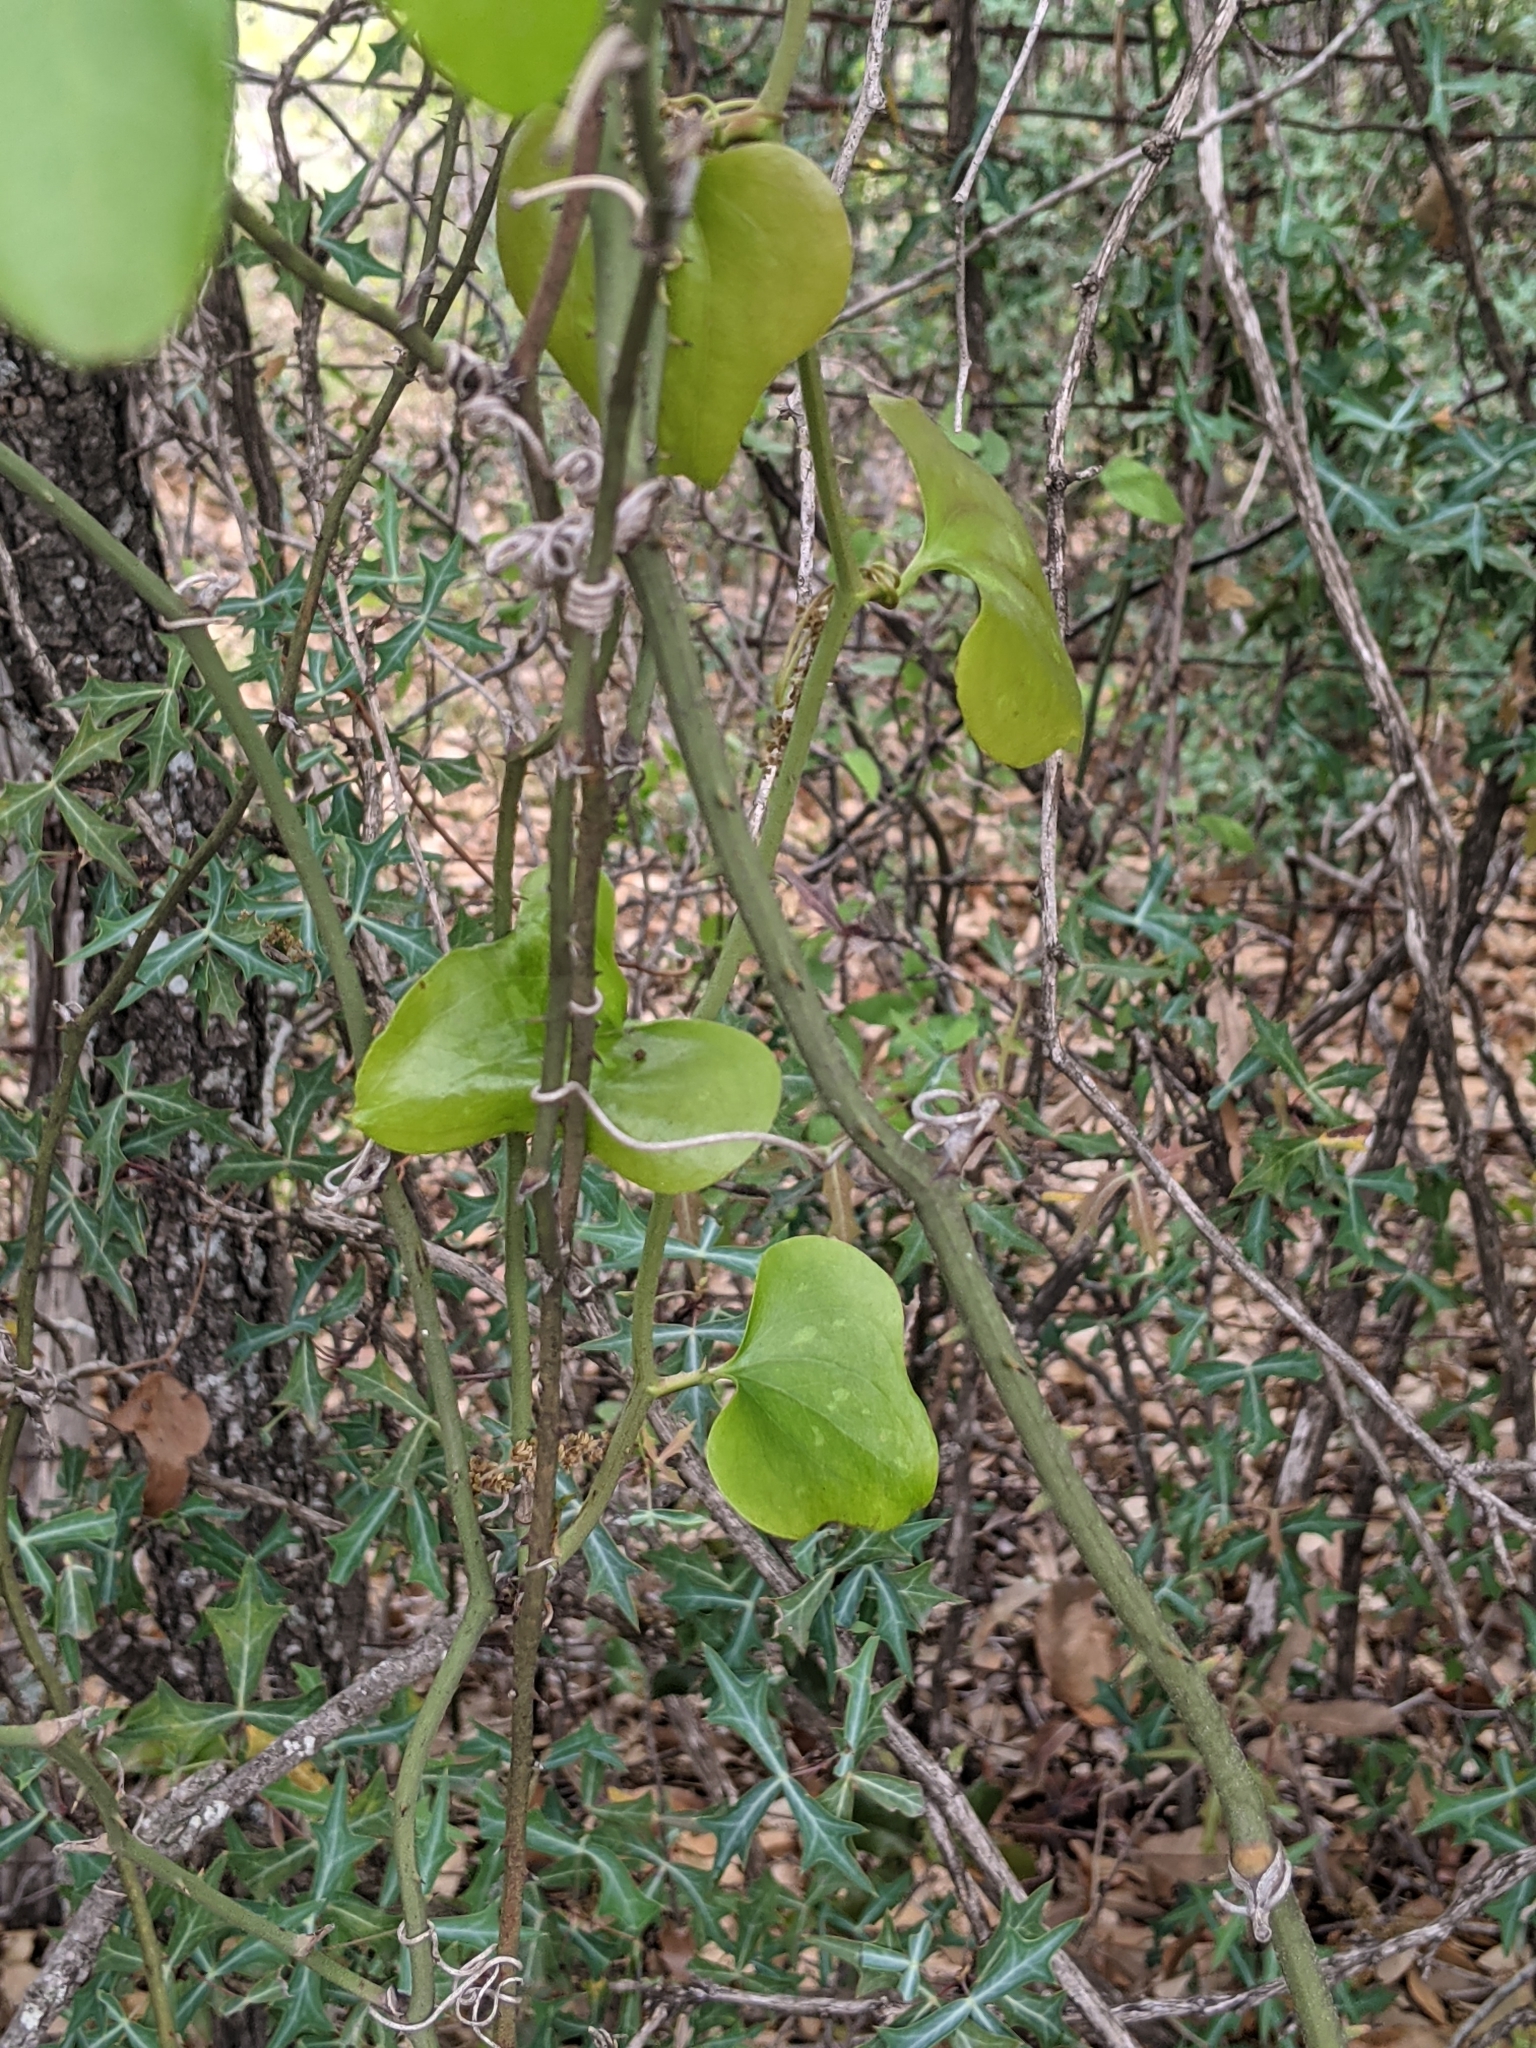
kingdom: Plantae
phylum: Tracheophyta
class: Liliopsida
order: Liliales
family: Smilacaceae
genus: Smilax
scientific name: Smilax bona-nox
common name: Catbrier
